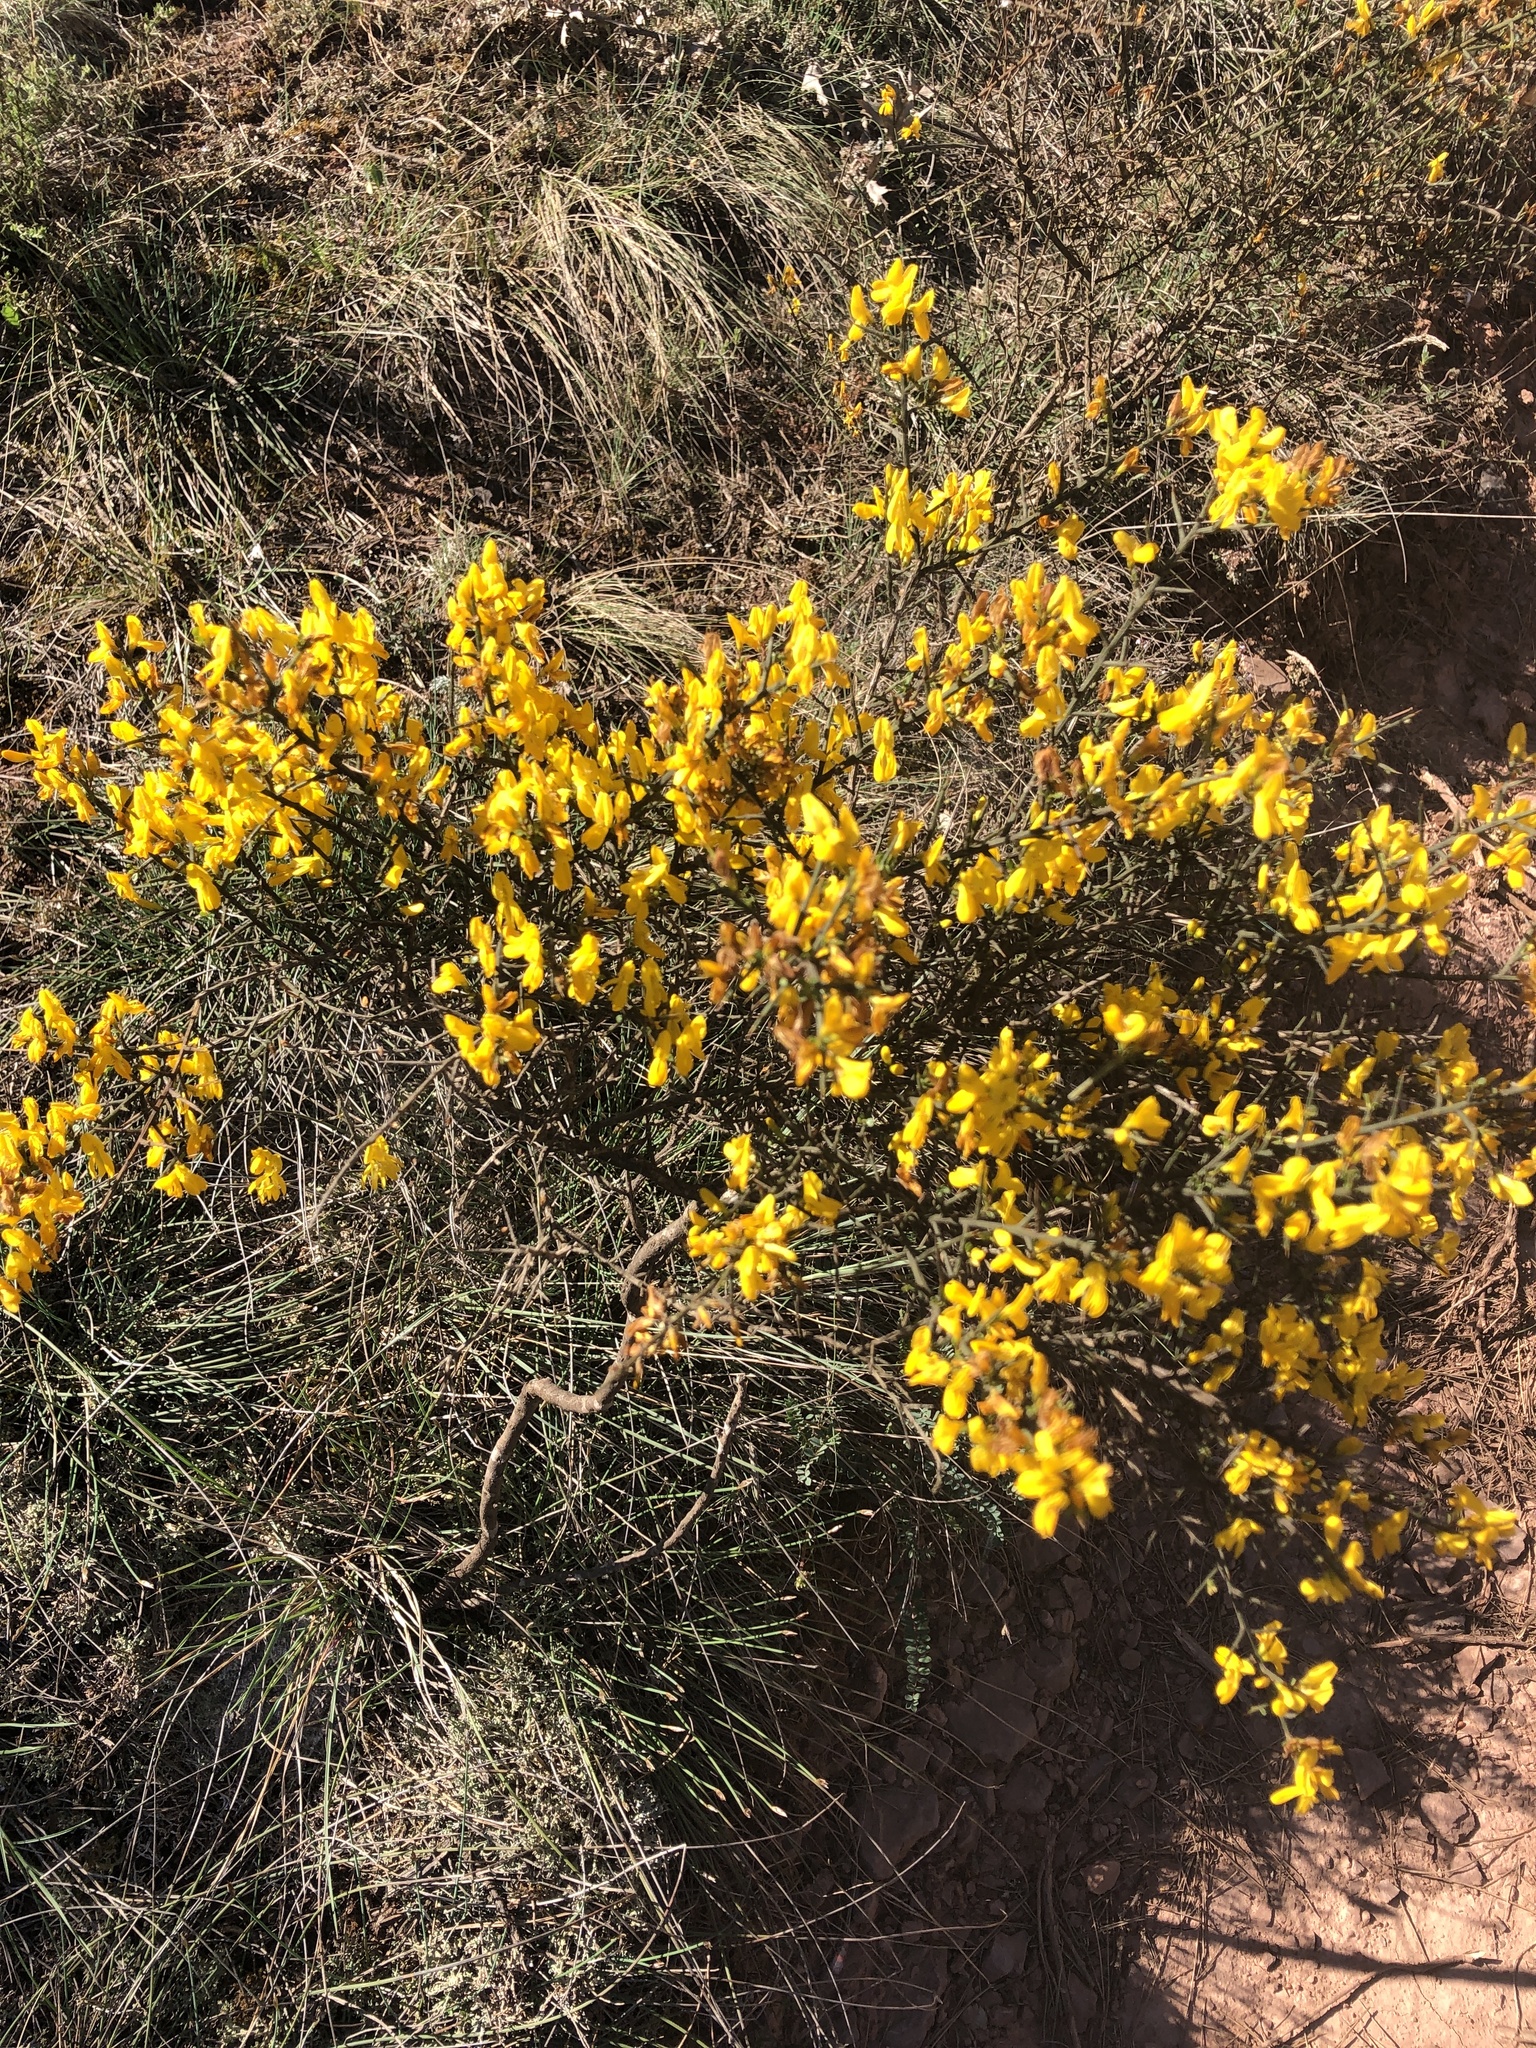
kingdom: Plantae
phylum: Tracheophyta
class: Magnoliopsida
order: Fabales
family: Fabaceae
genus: Genista
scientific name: Genista scorpius
